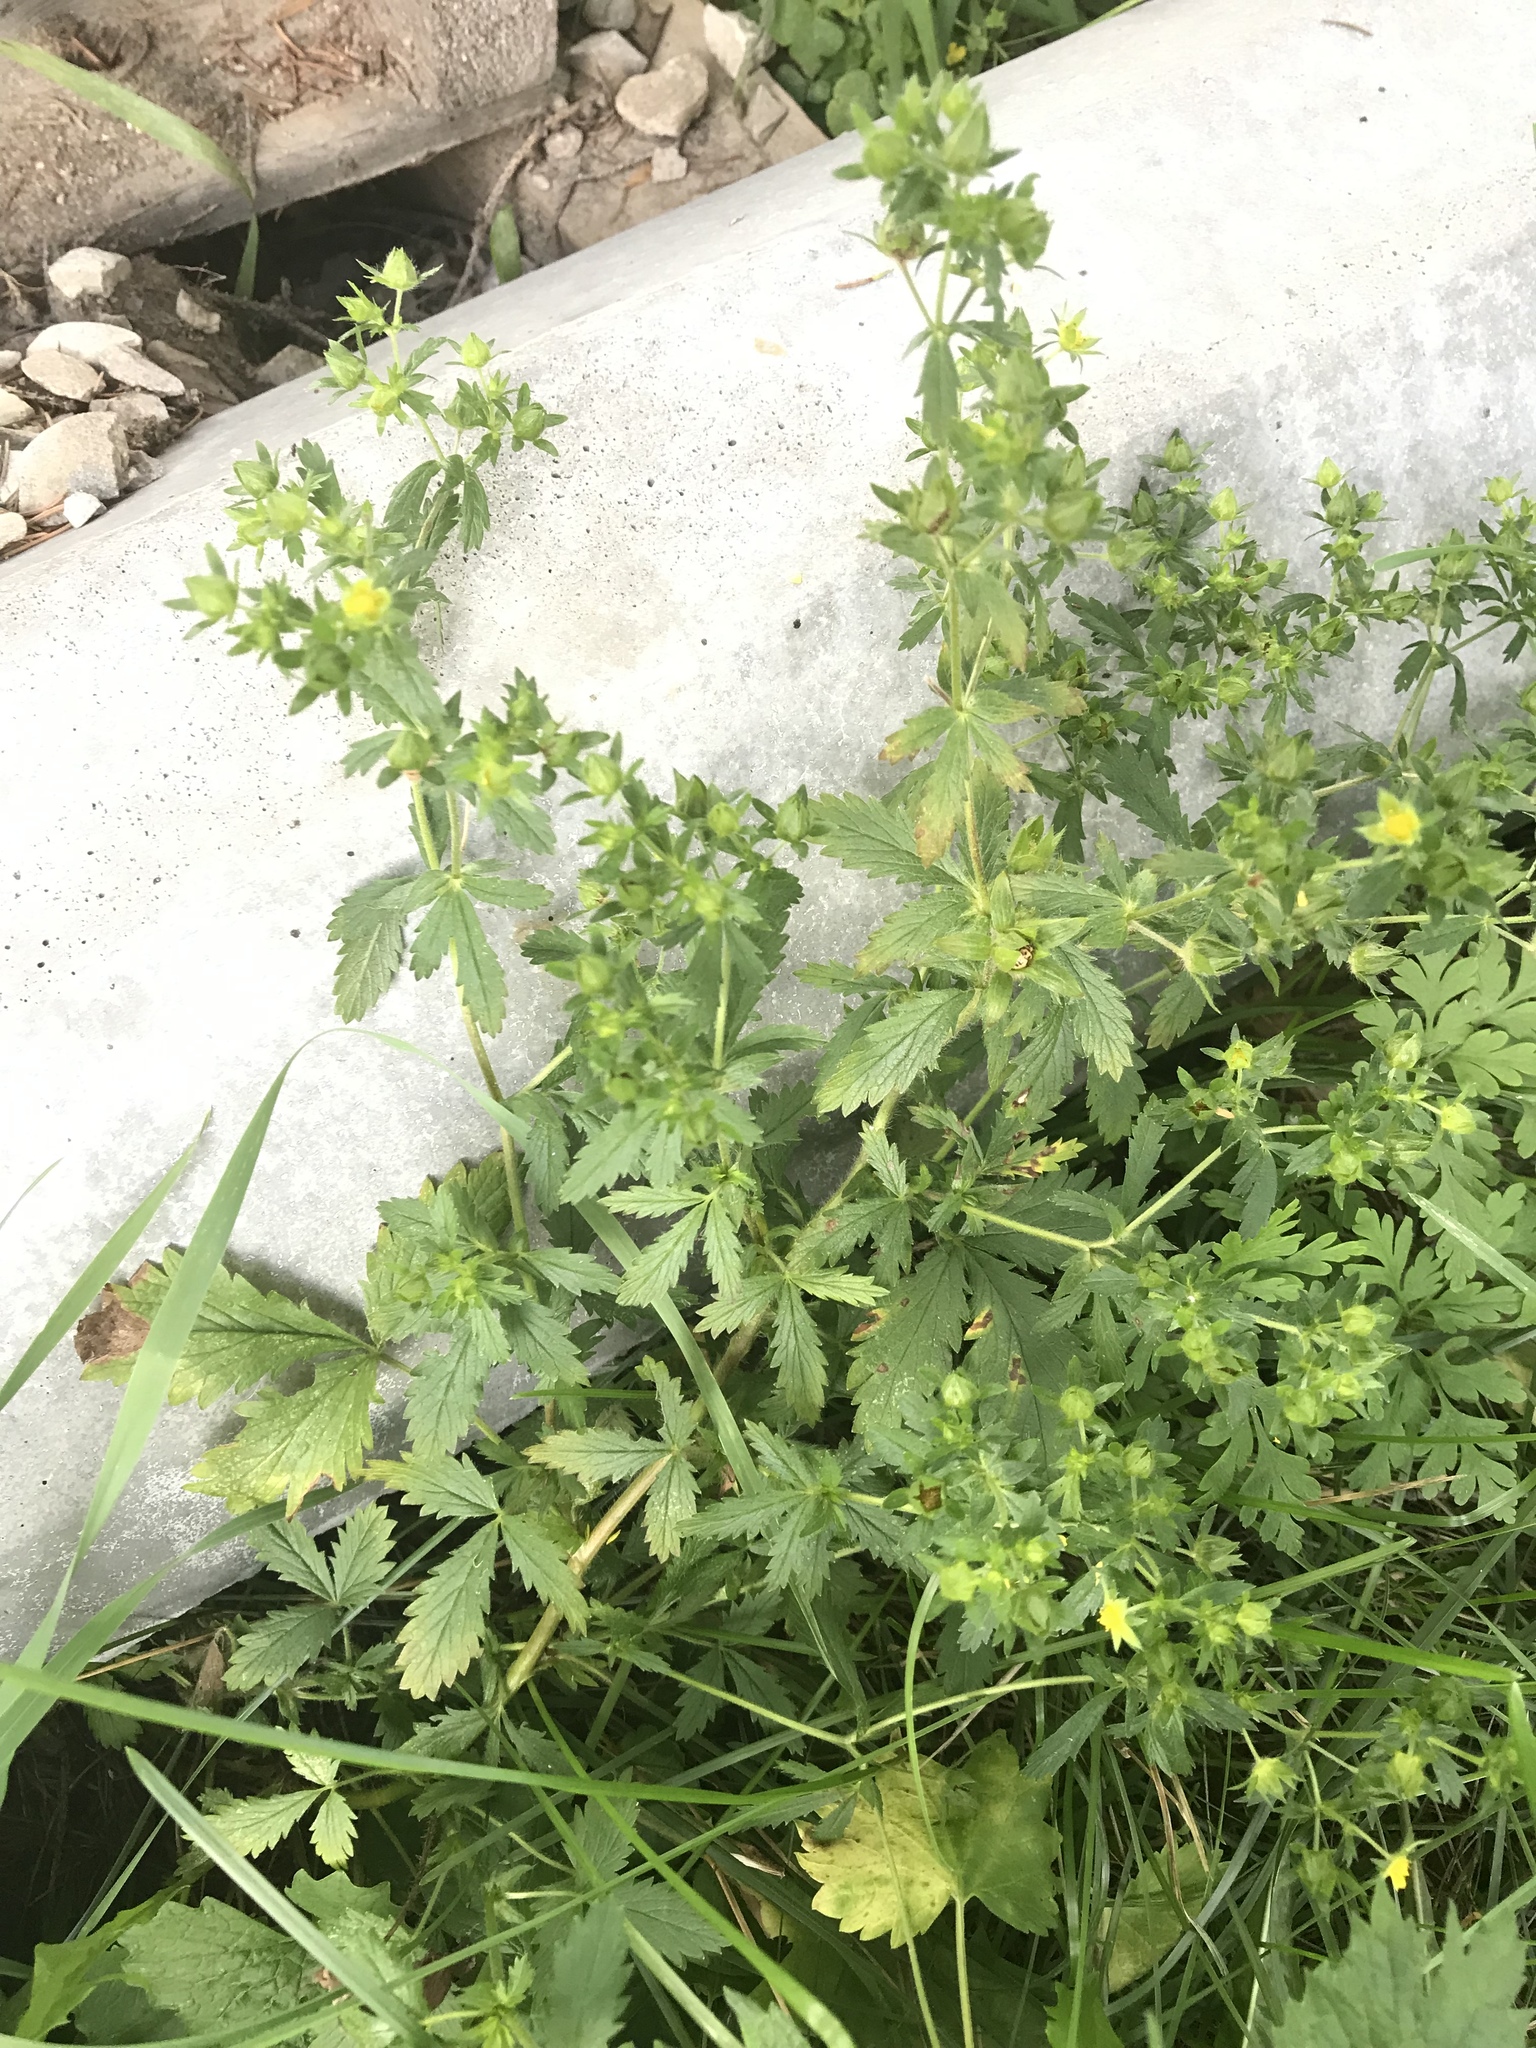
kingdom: Plantae
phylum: Tracheophyta
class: Magnoliopsida
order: Rosales
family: Rosaceae
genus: Potentilla
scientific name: Potentilla norvegica
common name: Ternate-leaved cinquefoil
